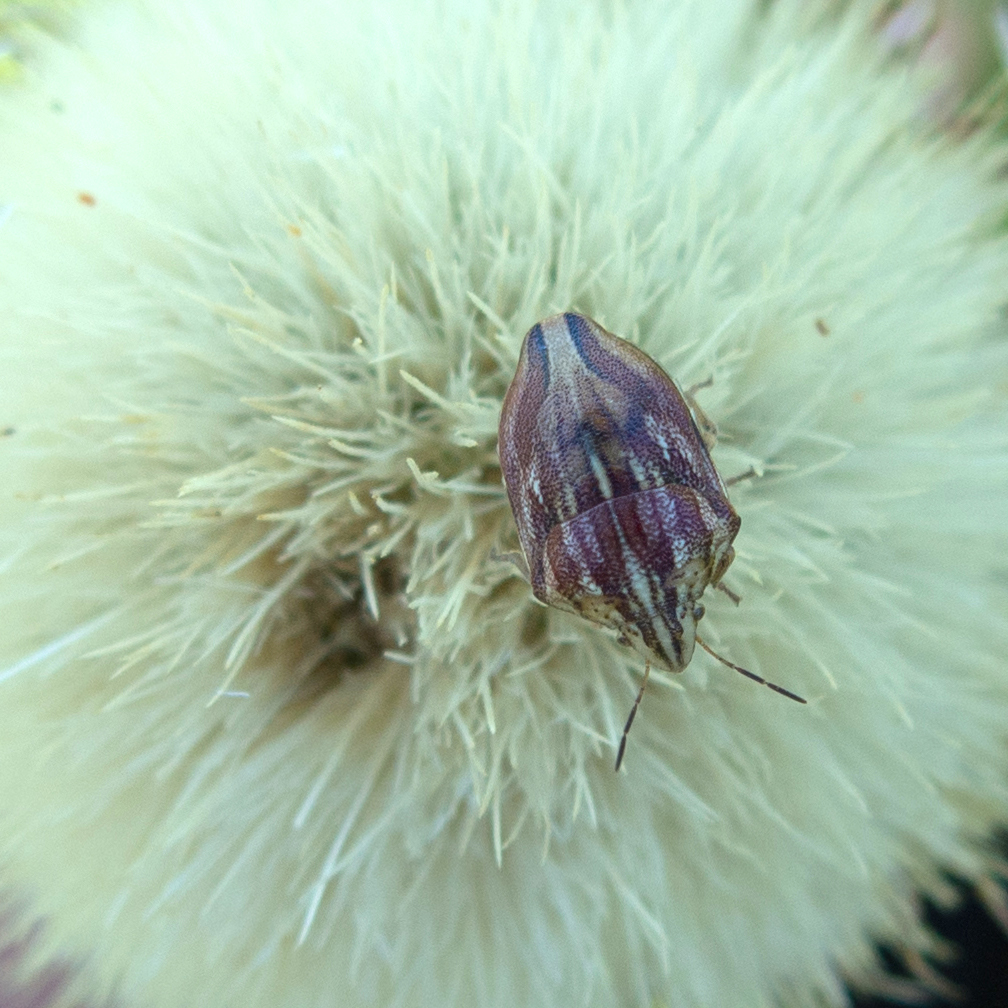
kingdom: Animalia
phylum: Arthropoda
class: Insecta
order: Hemiptera
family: Scutelleridae
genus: Odontotarsus
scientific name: Odontotarsus purpureolineatus
